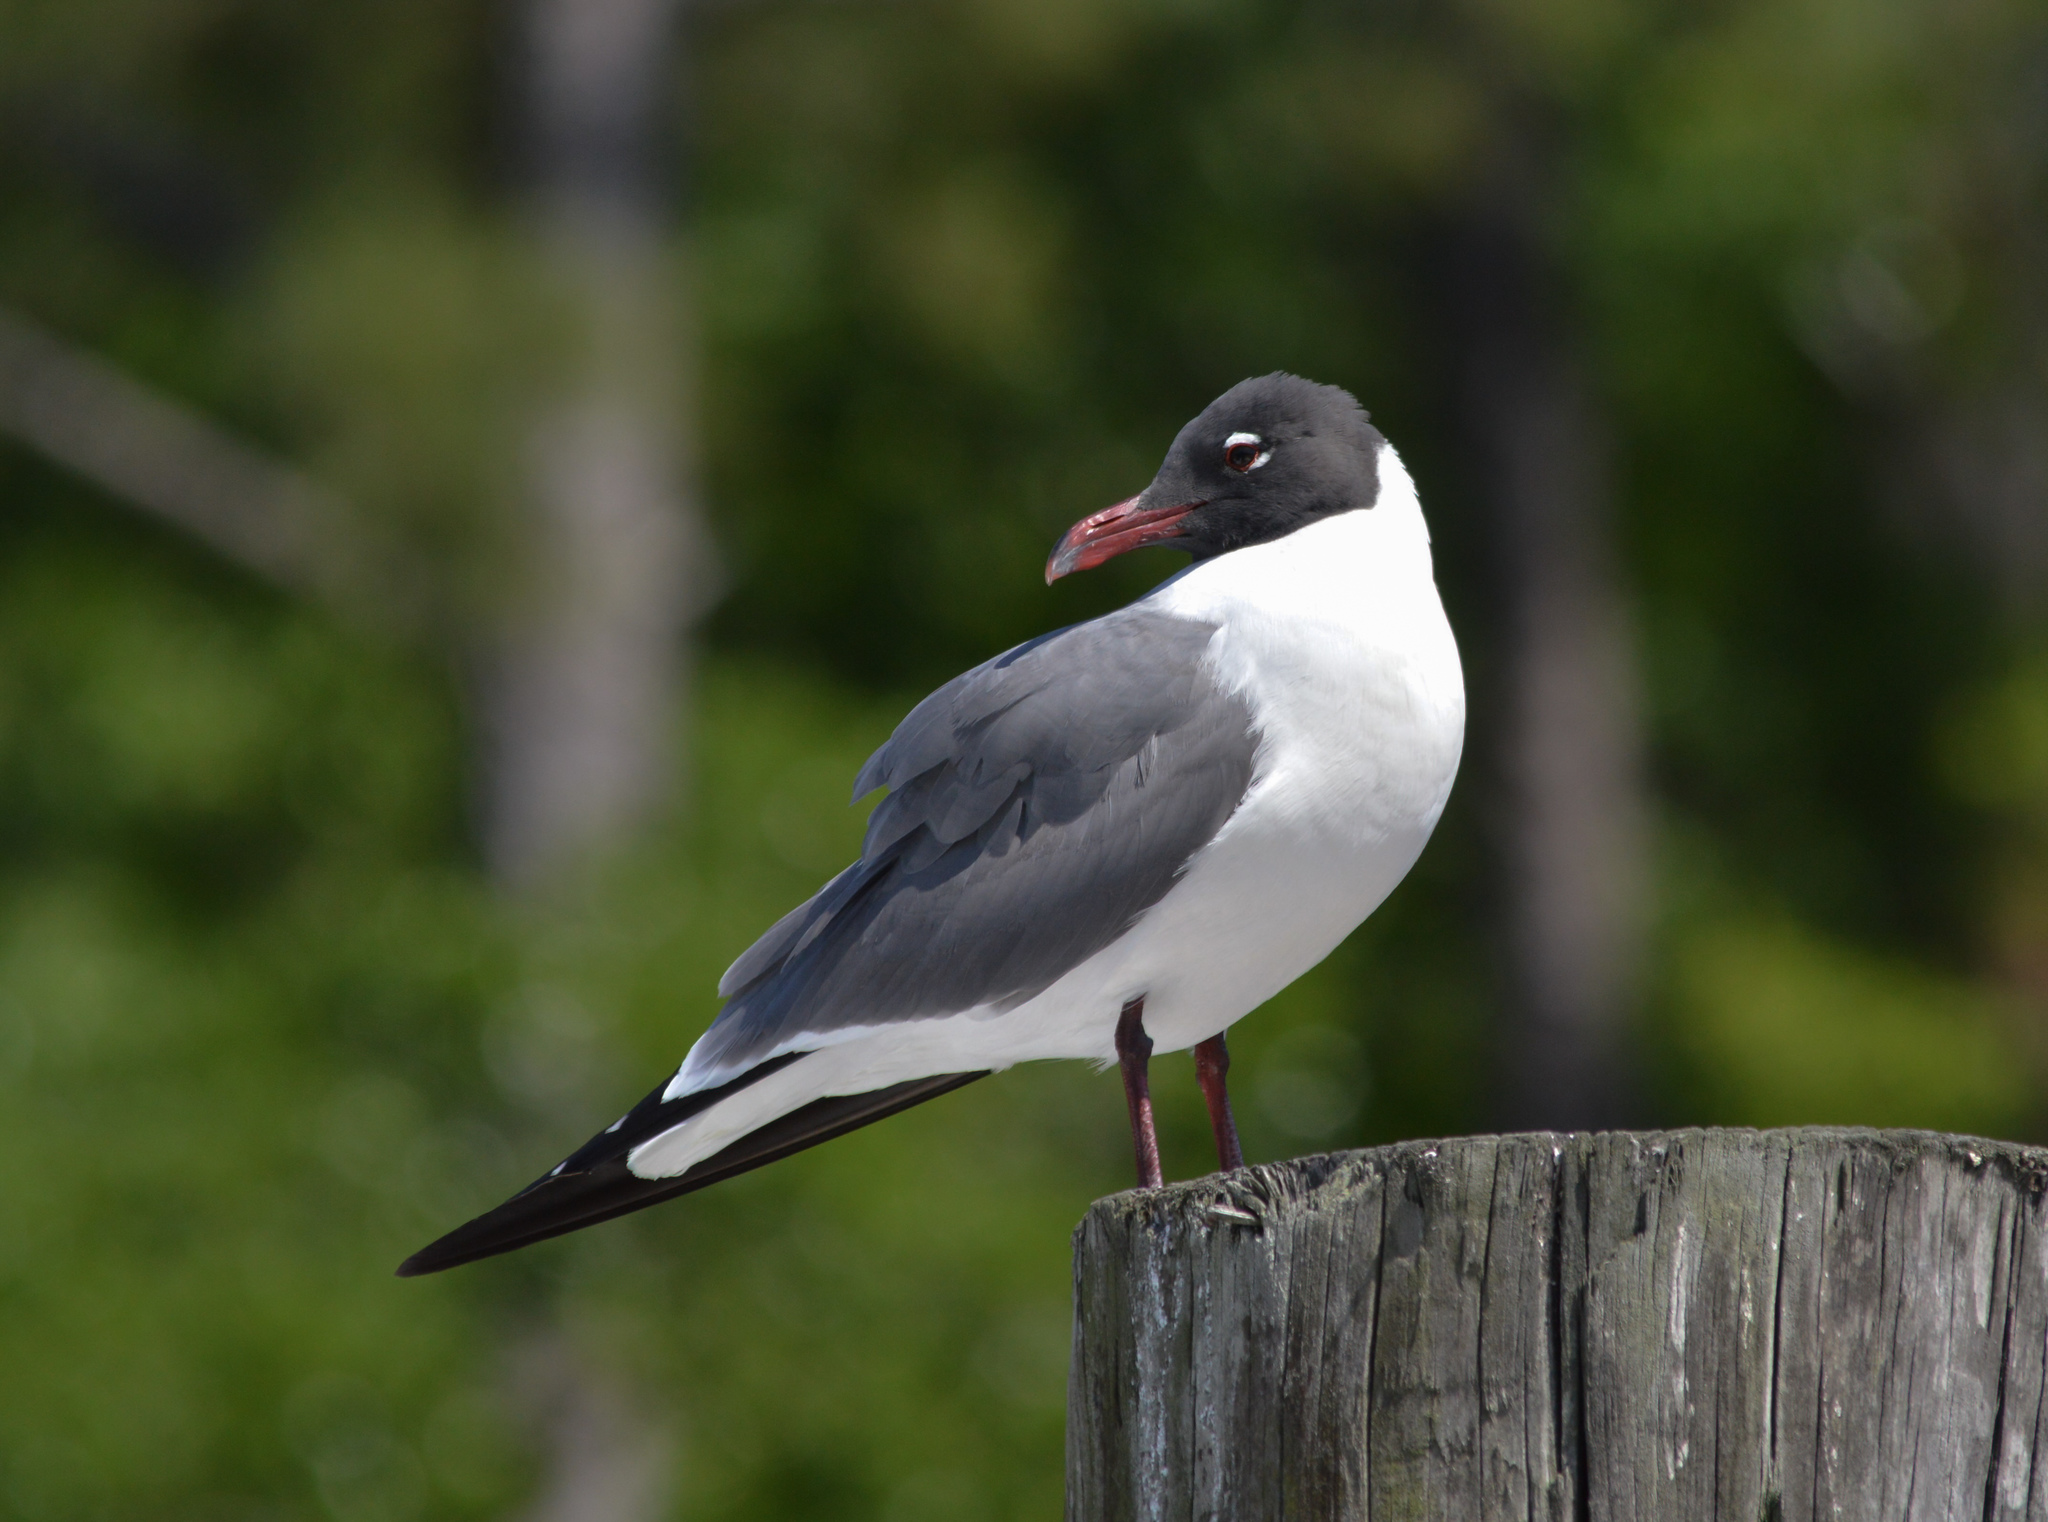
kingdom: Animalia
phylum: Chordata
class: Aves
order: Charadriiformes
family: Laridae
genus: Leucophaeus
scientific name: Leucophaeus atricilla
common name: Laughing gull
